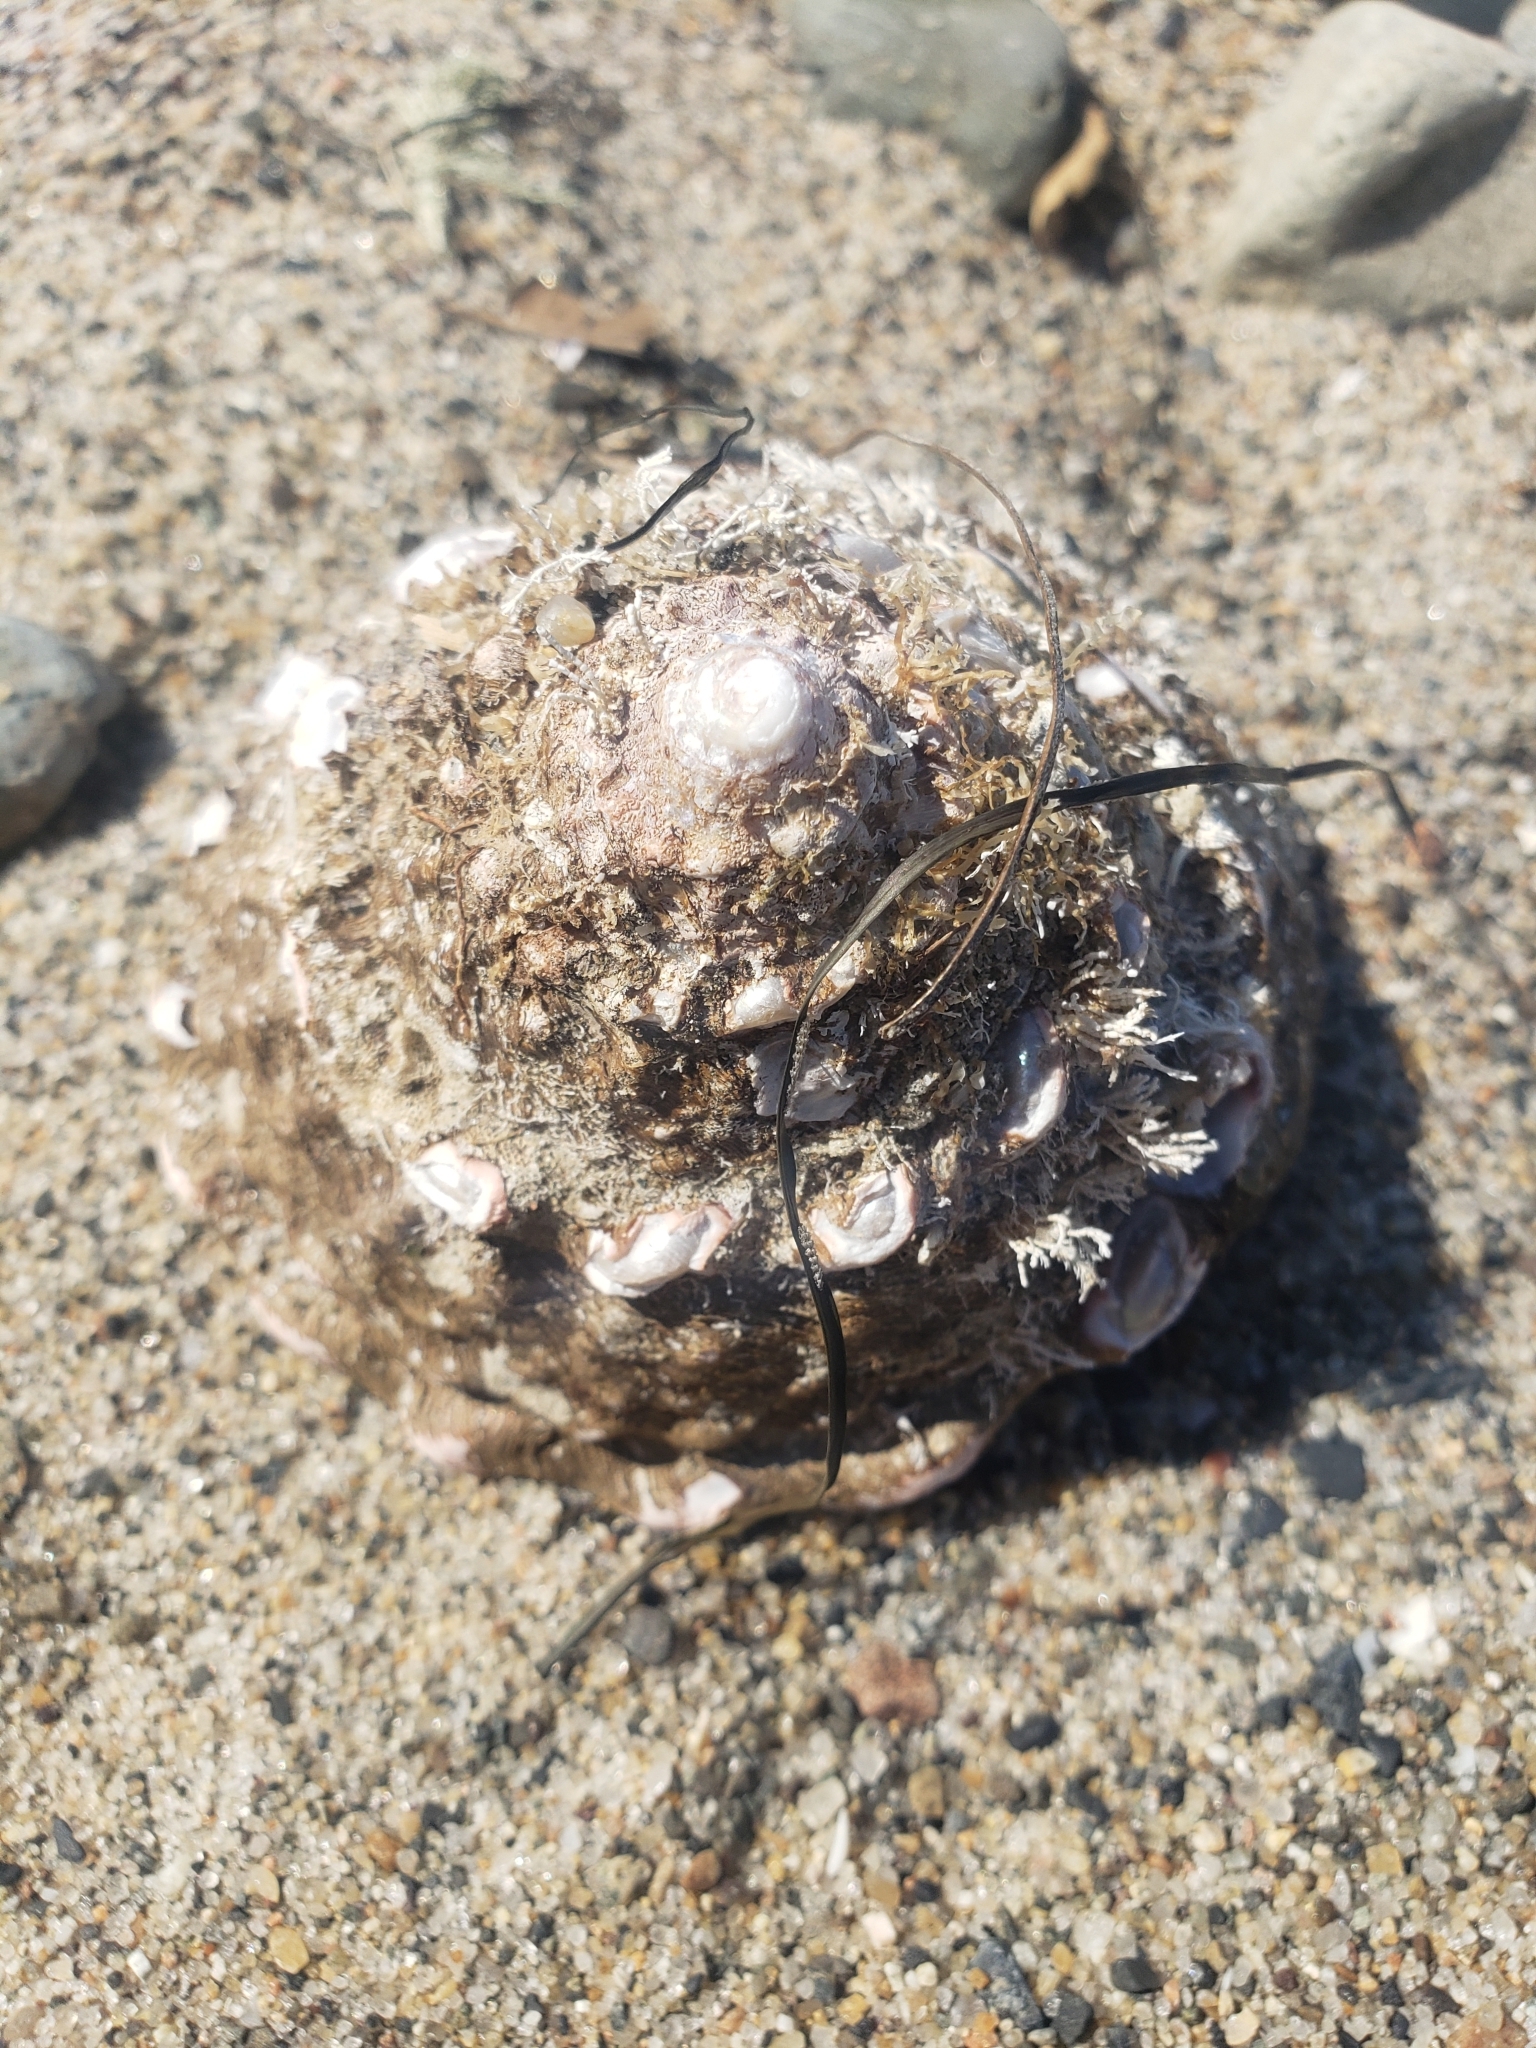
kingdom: Animalia
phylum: Mollusca
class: Gastropoda
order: Trochida
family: Turbinidae
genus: Megastraea
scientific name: Megastraea undosa
